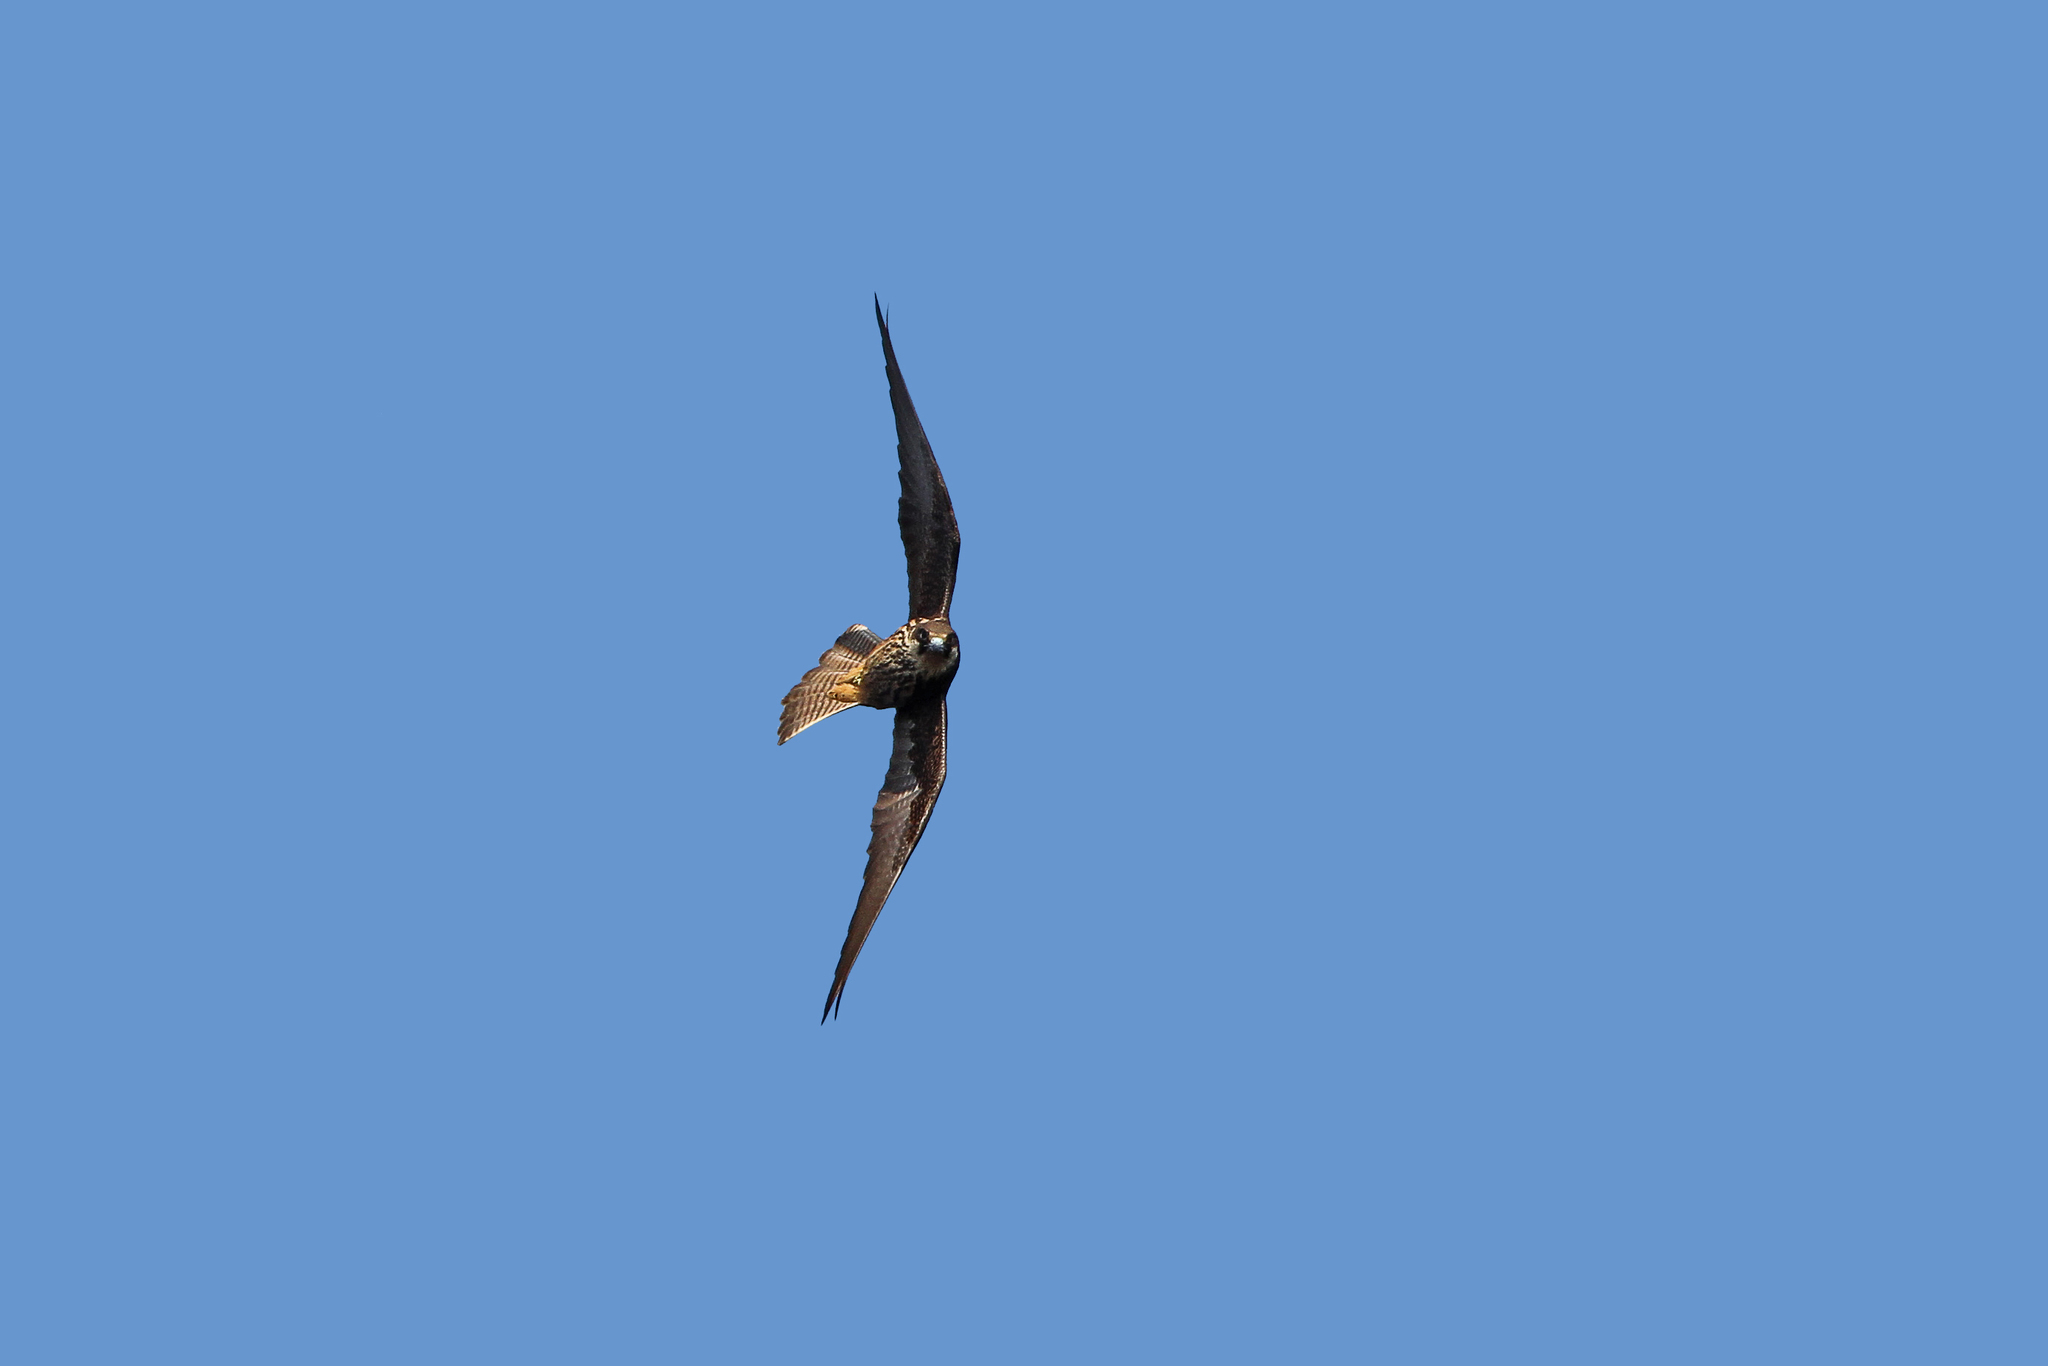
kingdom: Animalia
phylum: Chordata
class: Aves
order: Falconiformes
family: Falconidae
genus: Falco
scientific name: Falco eleonorae
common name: Eleonora's falcon
